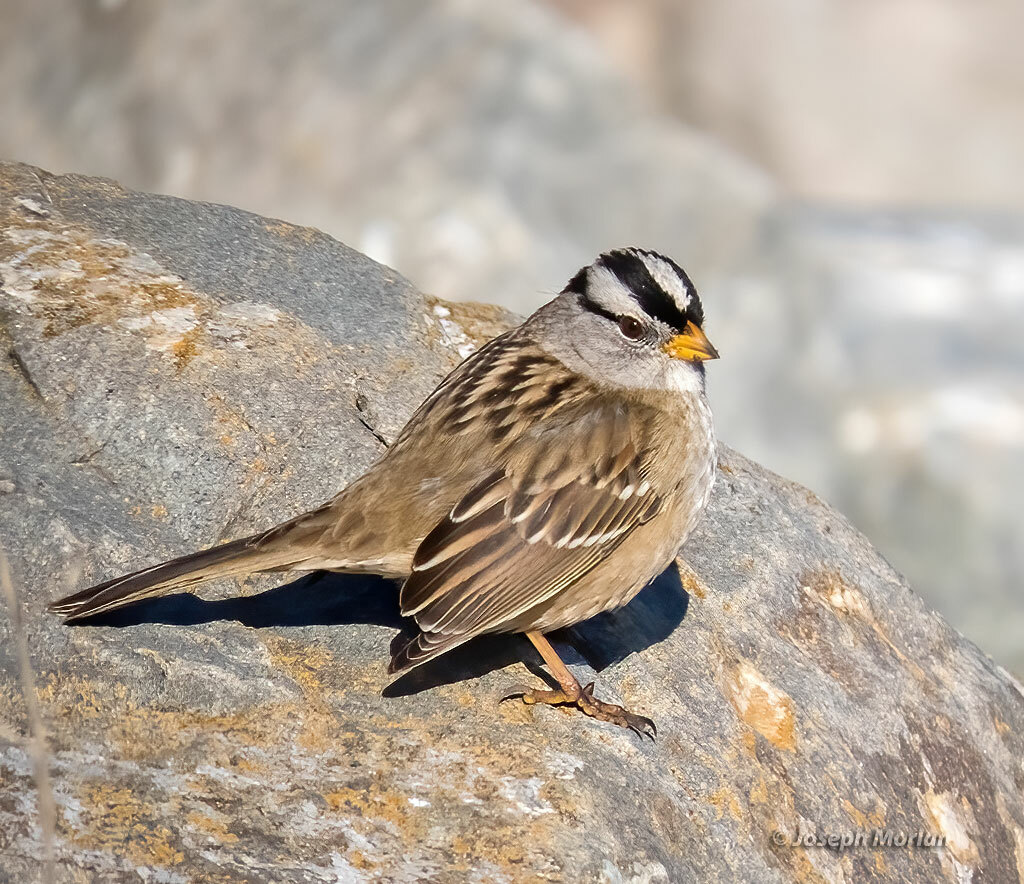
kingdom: Animalia
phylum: Chordata
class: Aves
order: Passeriformes
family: Passerellidae
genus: Zonotrichia
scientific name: Zonotrichia leucophrys
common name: White-crowned sparrow
